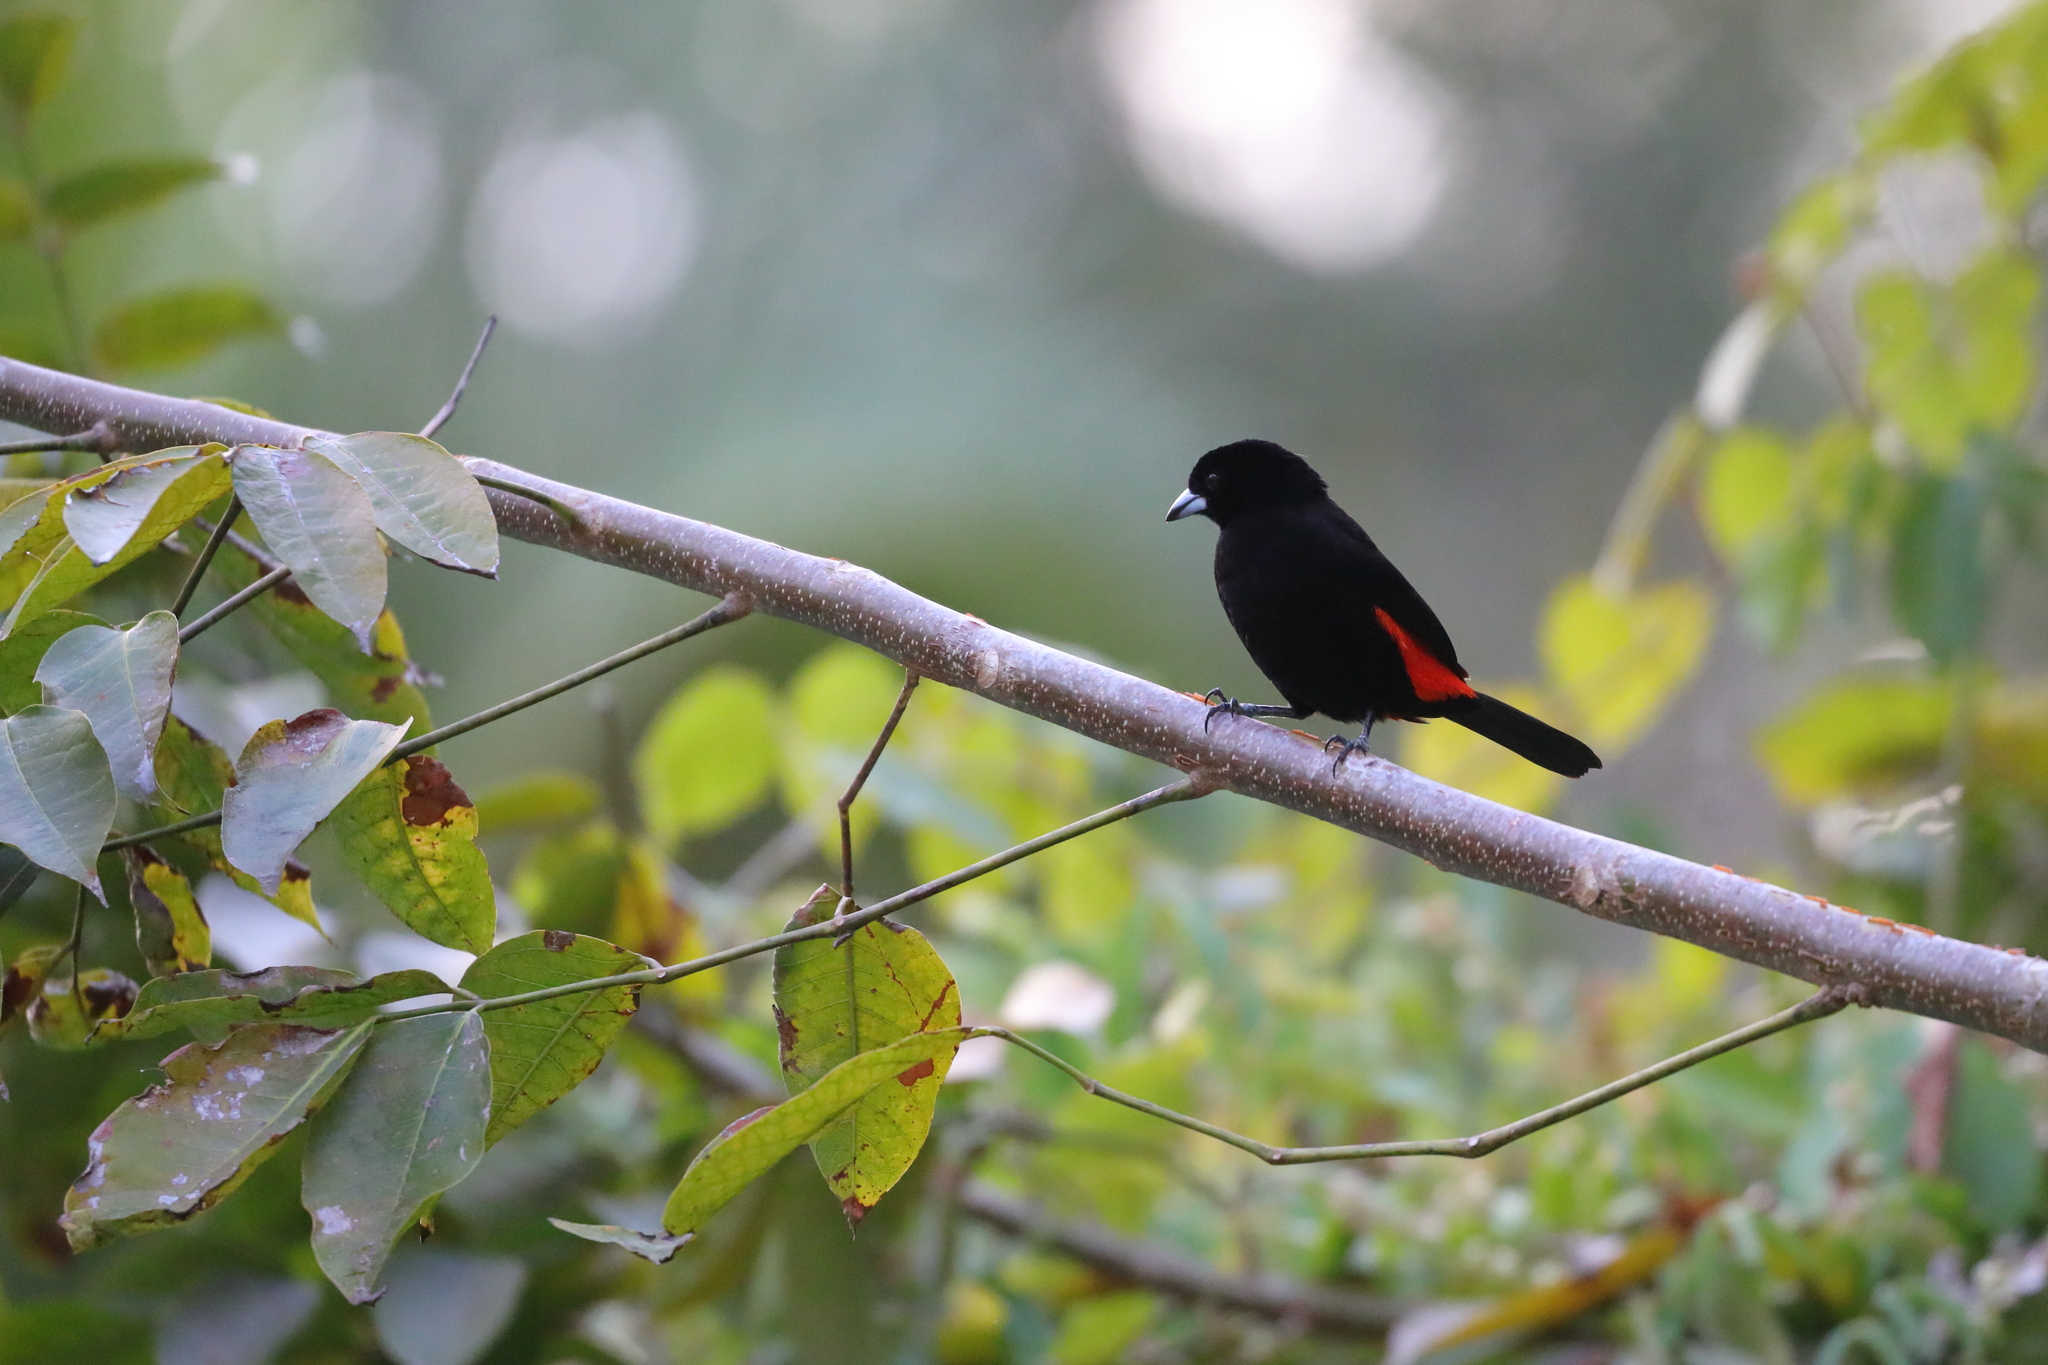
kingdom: Animalia
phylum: Chordata
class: Aves
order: Passeriformes
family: Thraupidae
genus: Ramphocelus
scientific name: Ramphocelus passerinii
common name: Passerini's tanager
